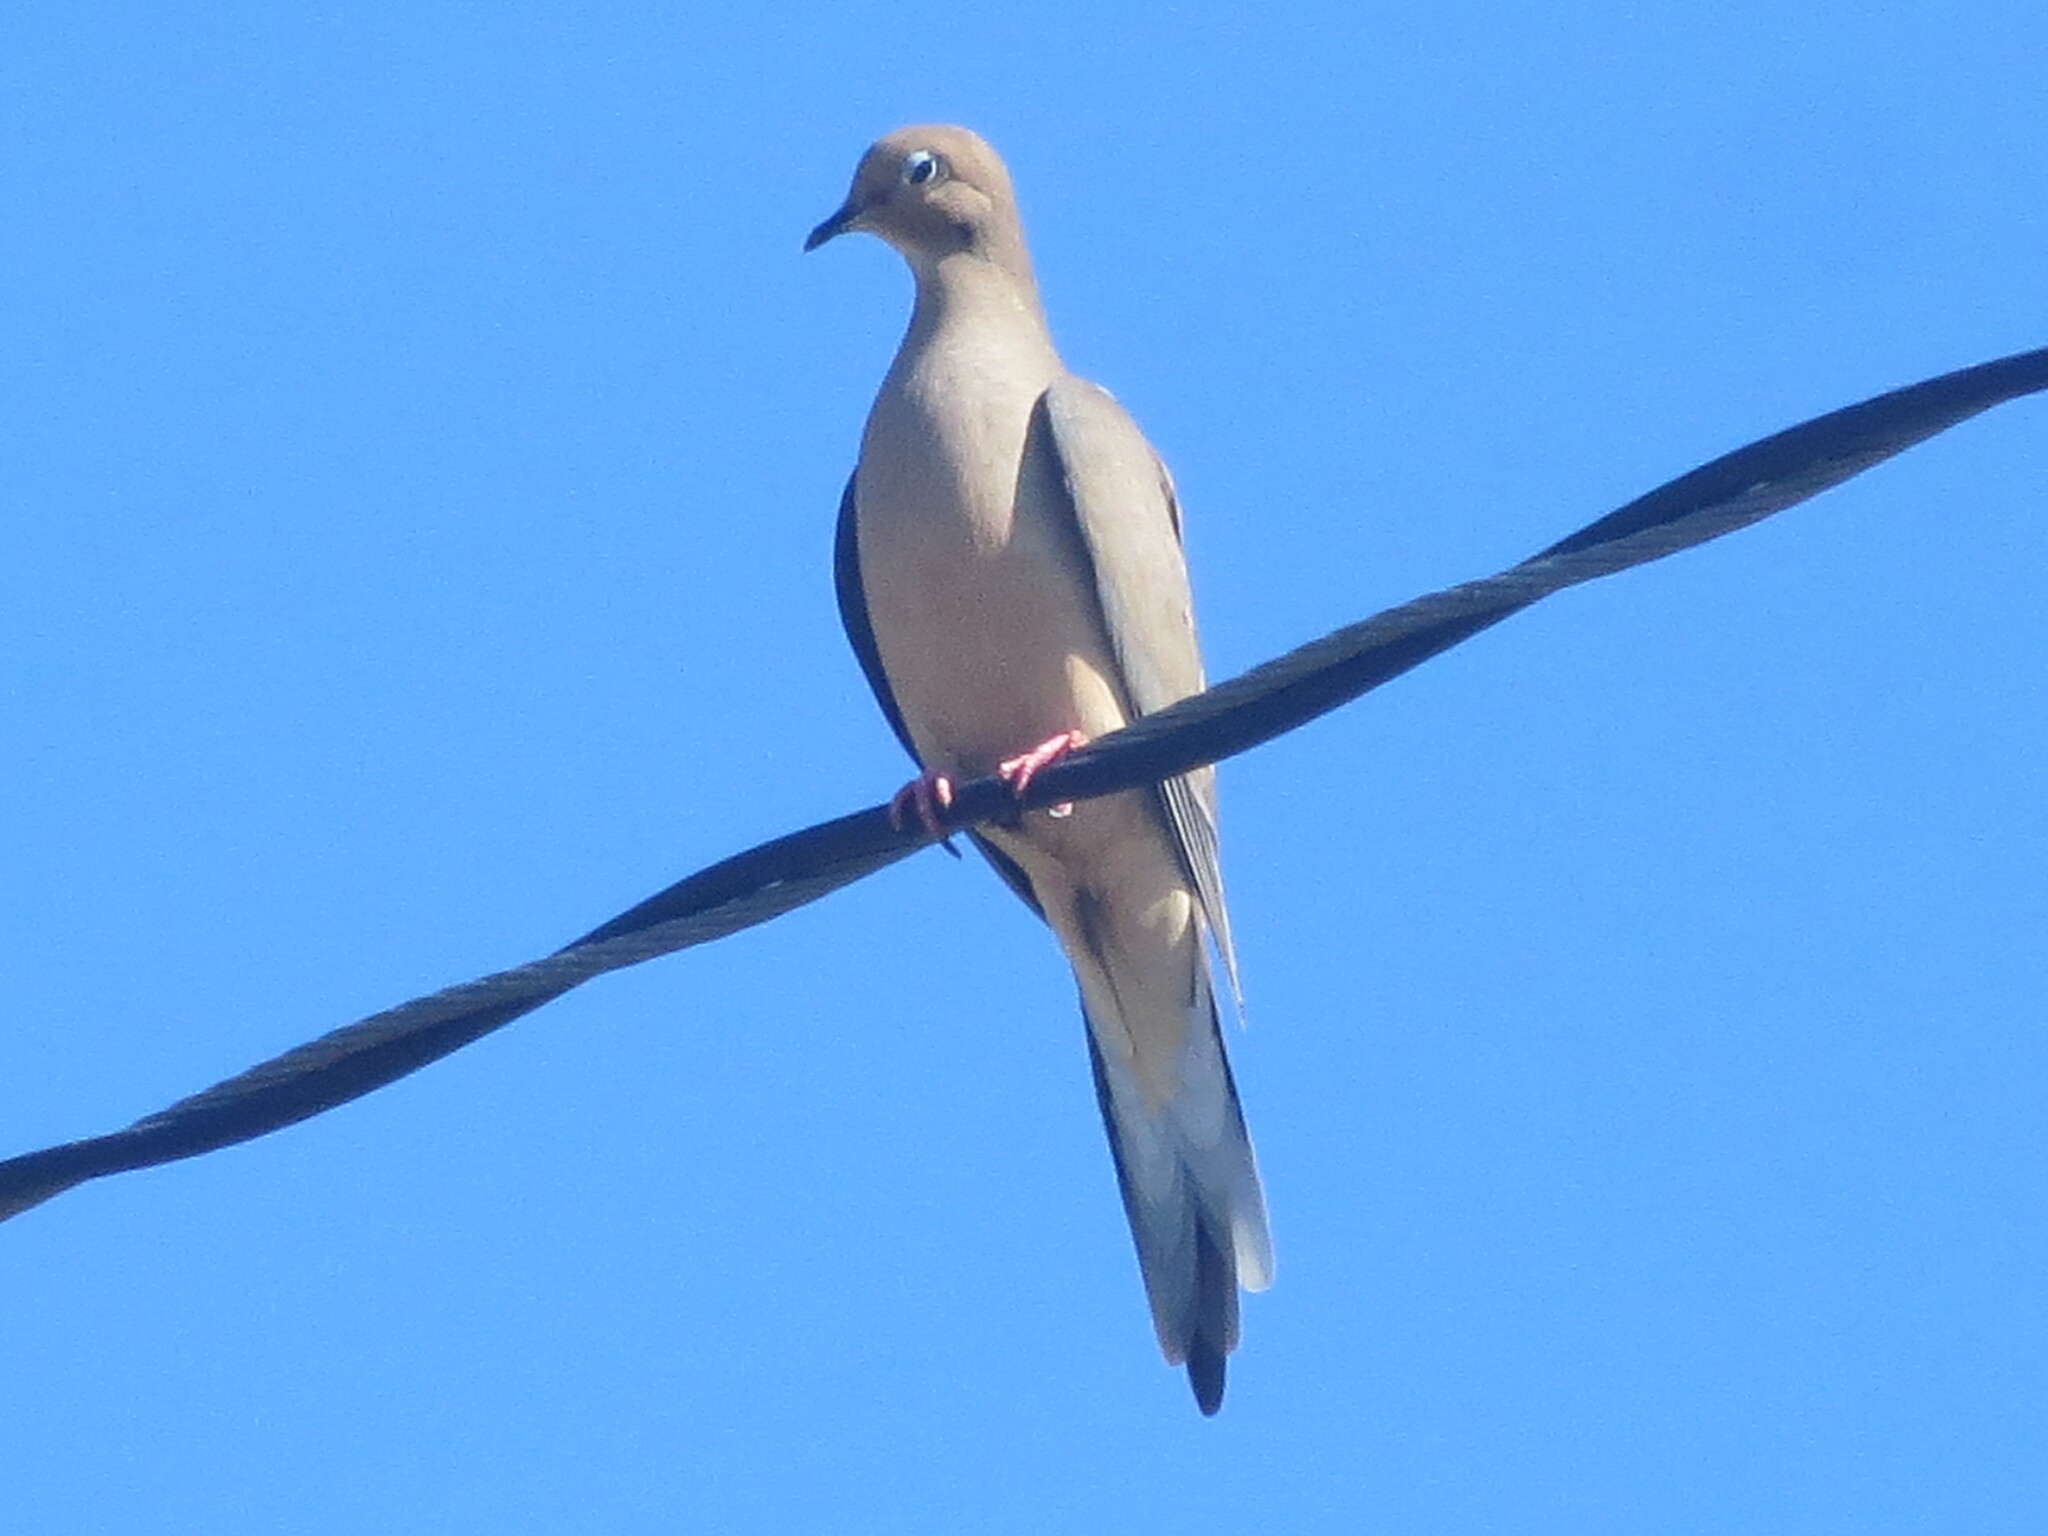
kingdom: Animalia
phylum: Chordata
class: Aves
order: Columbiformes
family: Columbidae
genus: Zenaida
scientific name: Zenaida macroura
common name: Mourning dove
